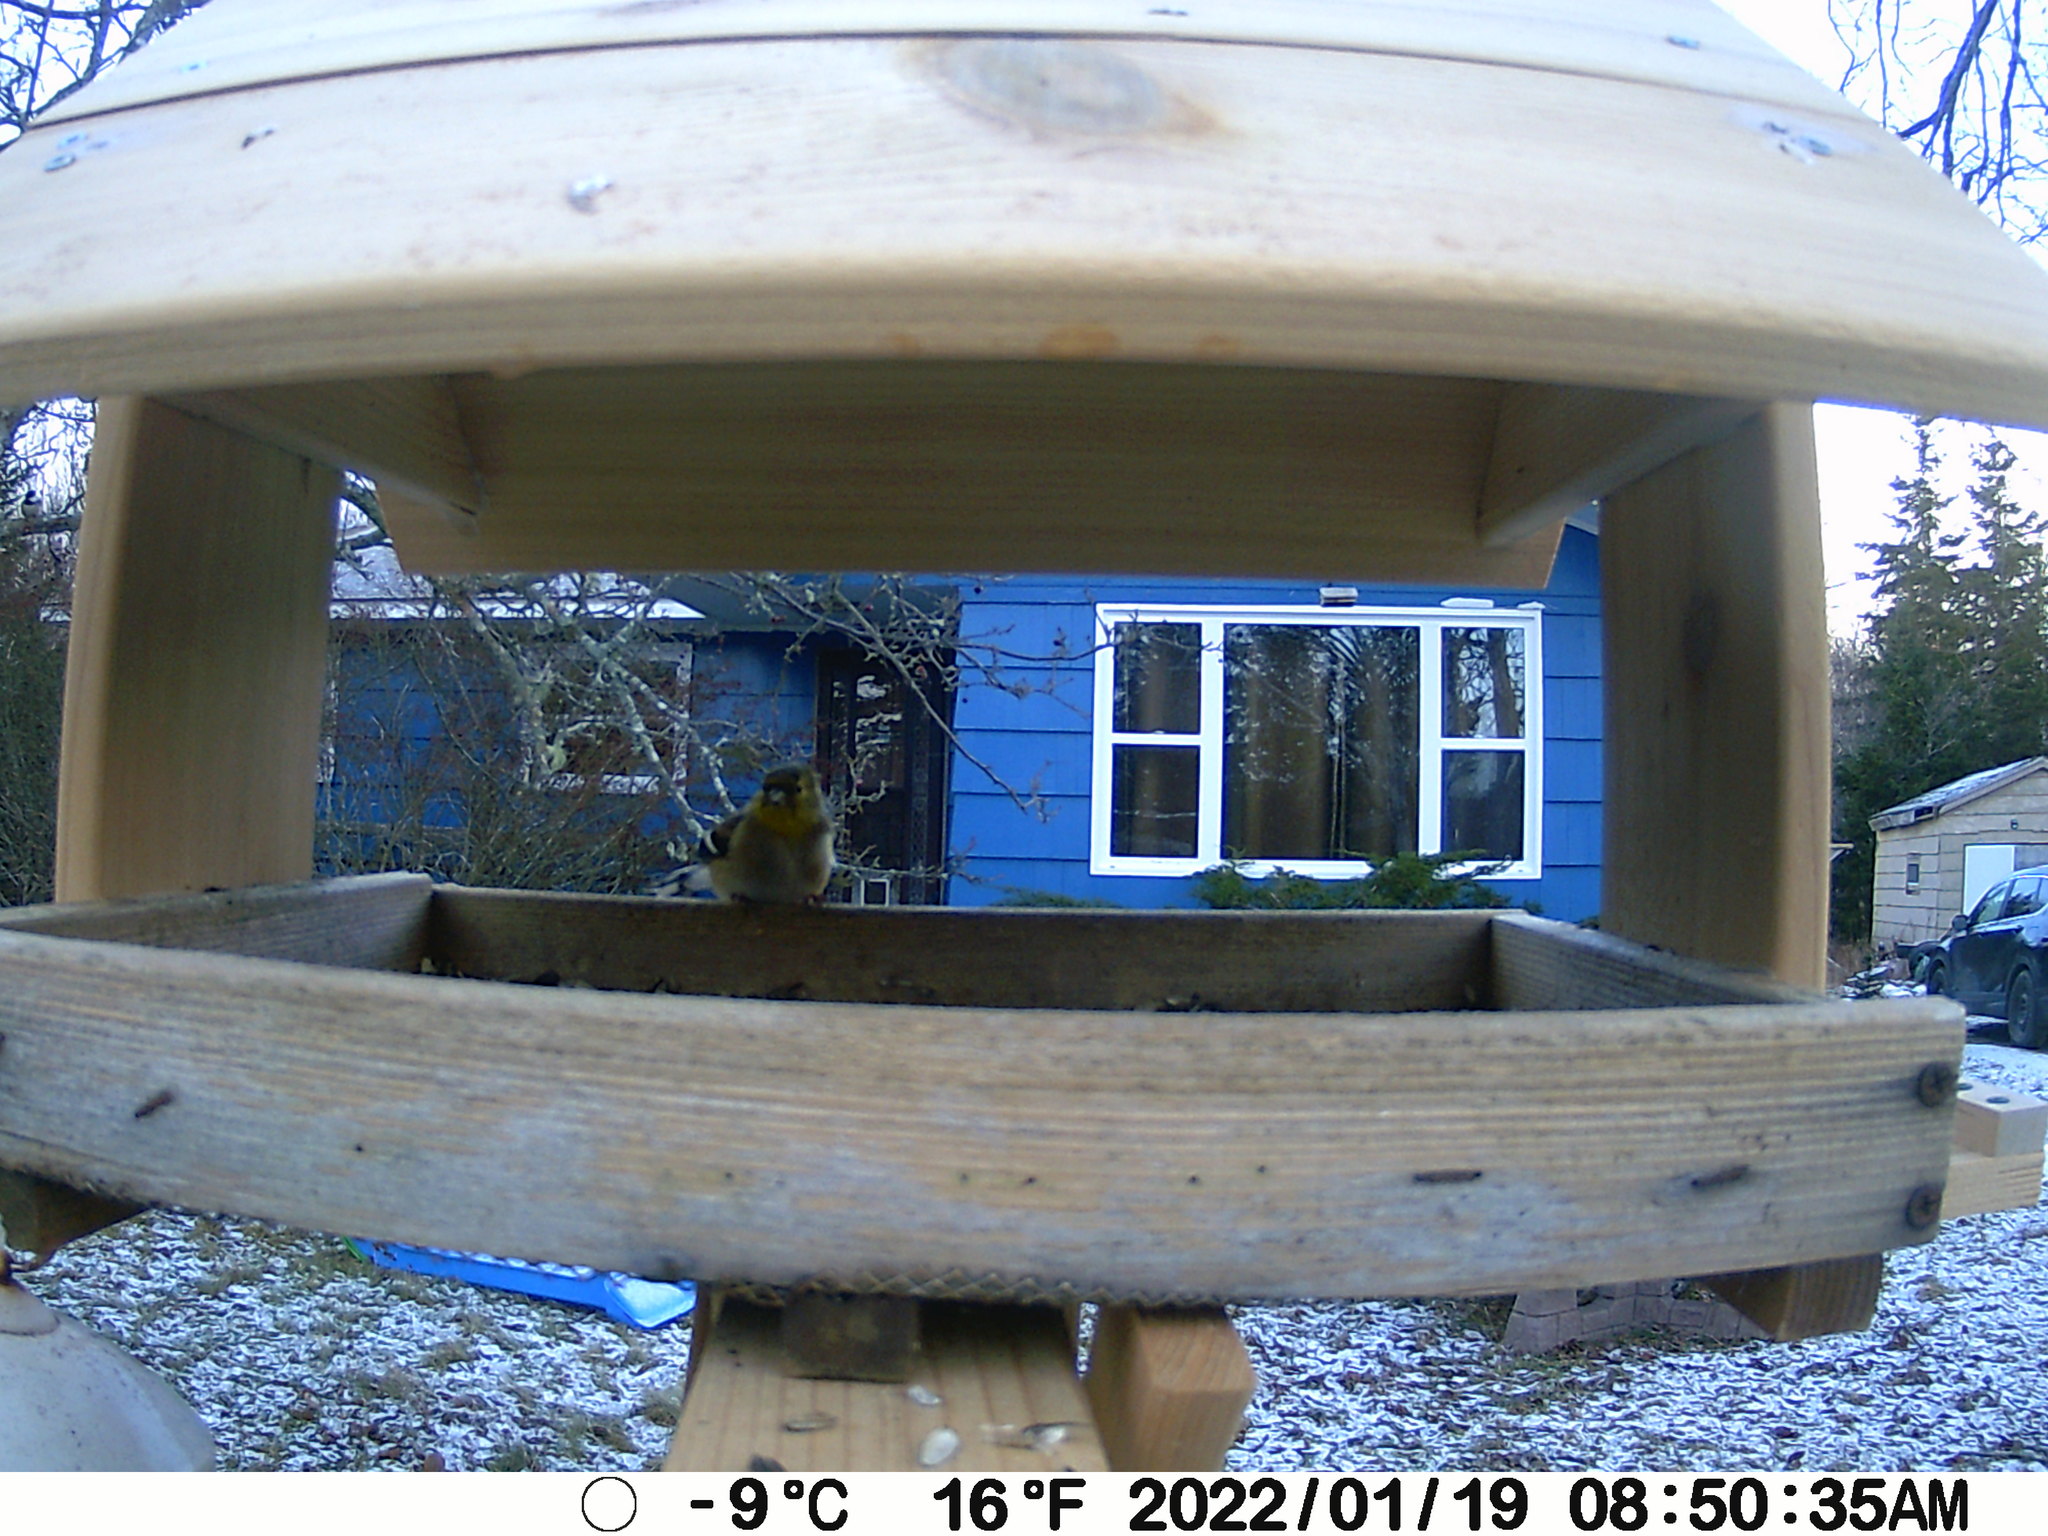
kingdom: Animalia
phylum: Chordata
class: Aves
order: Passeriformes
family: Fringillidae
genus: Spinus
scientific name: Spinus tristis
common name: American goldfinch
